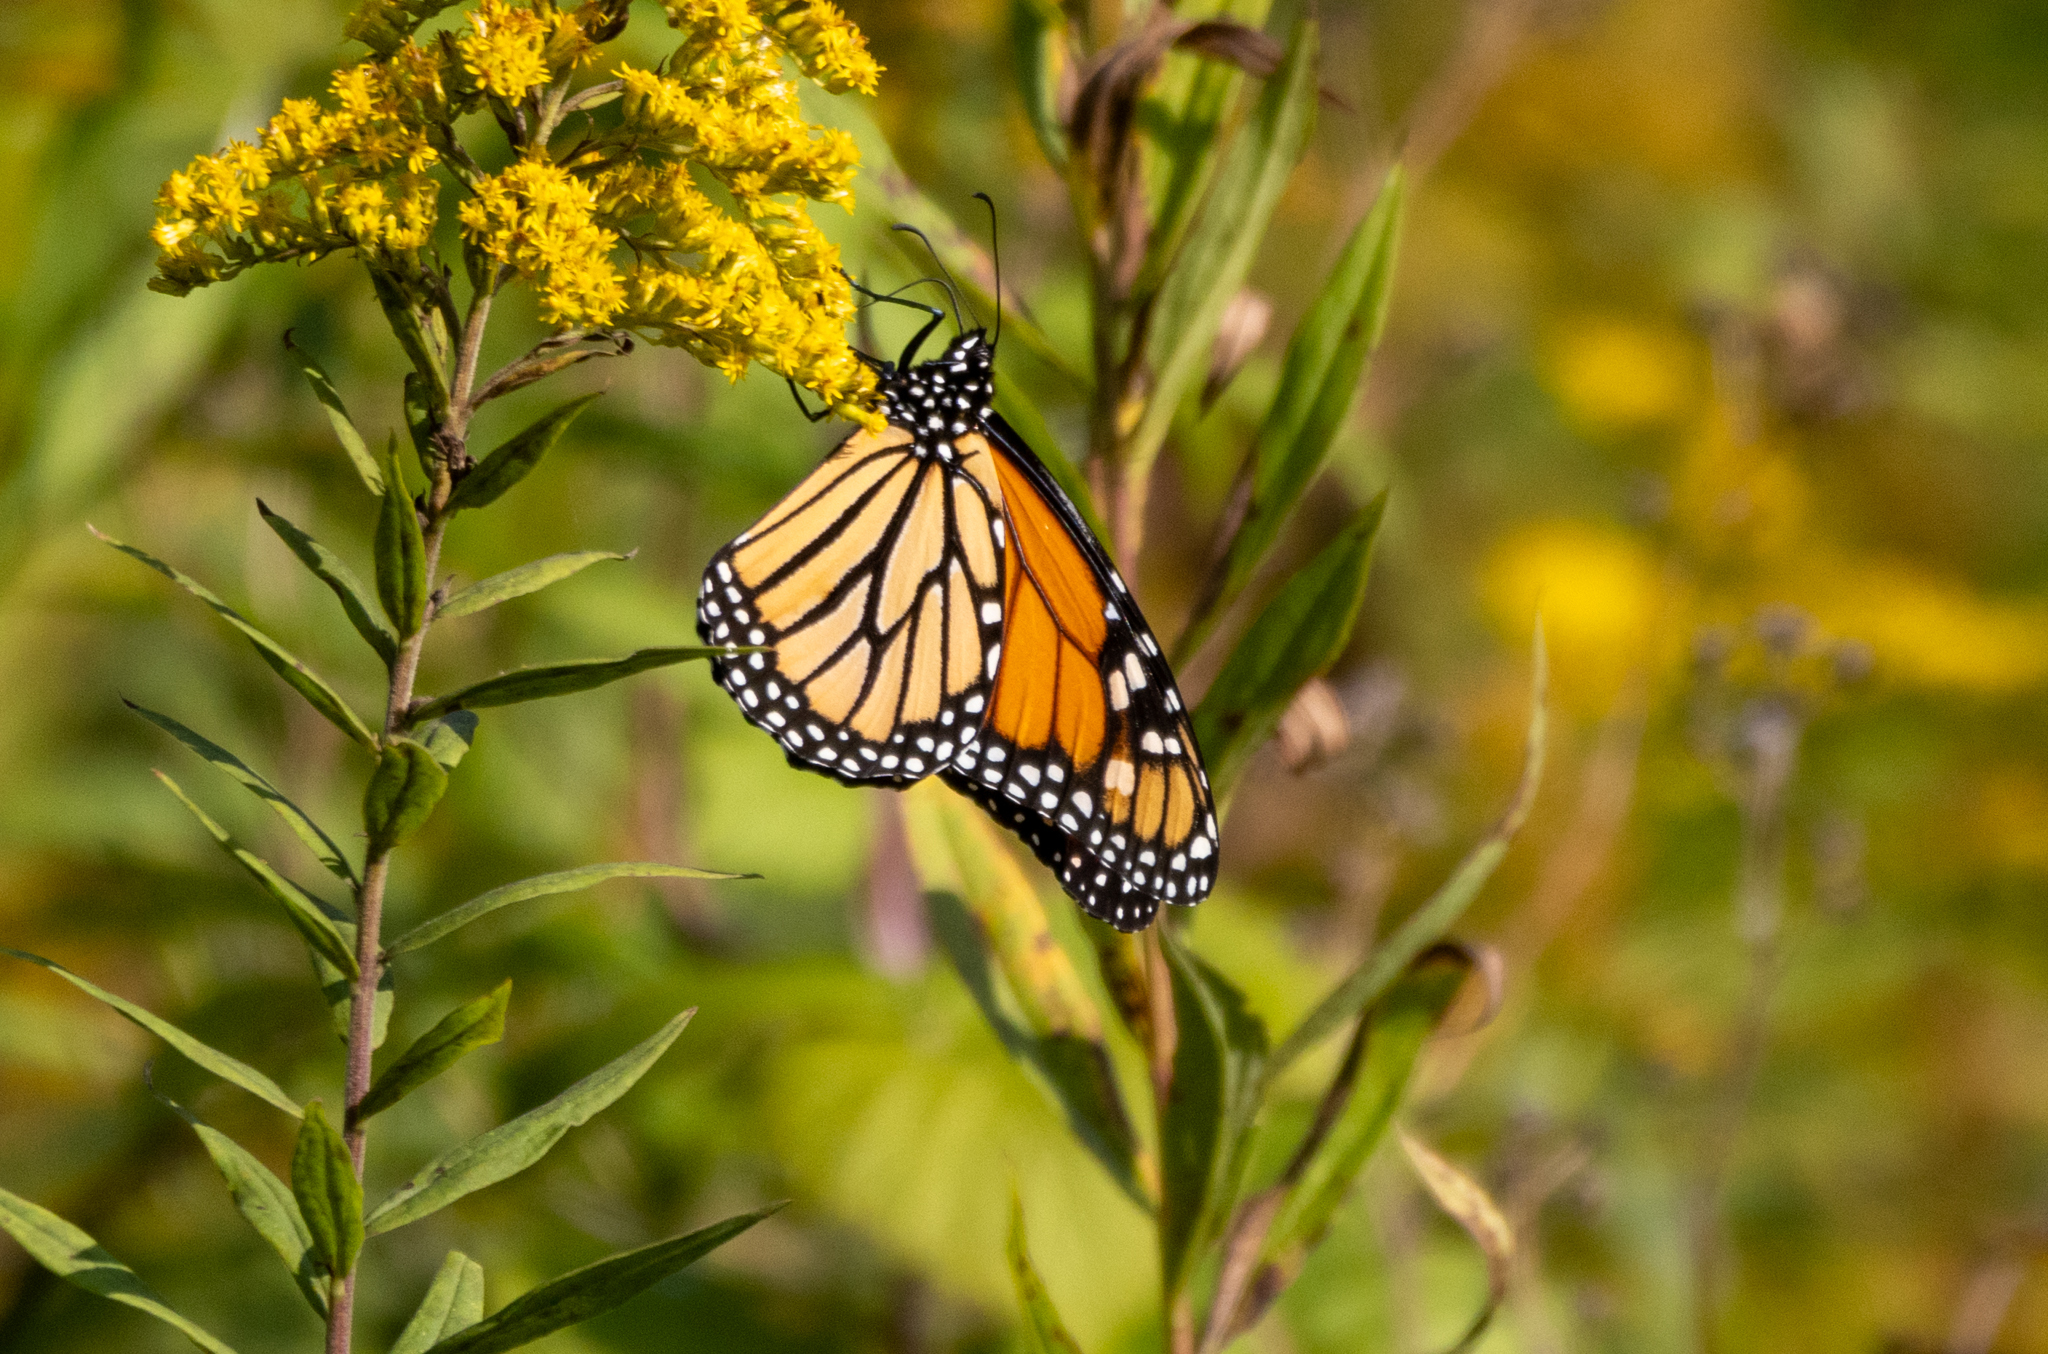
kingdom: Animalia
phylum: Arthropoda
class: Insecta
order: Lepidoptera
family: Nymphalidae
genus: Danaus
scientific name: Danaus plexippus
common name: Monarch
